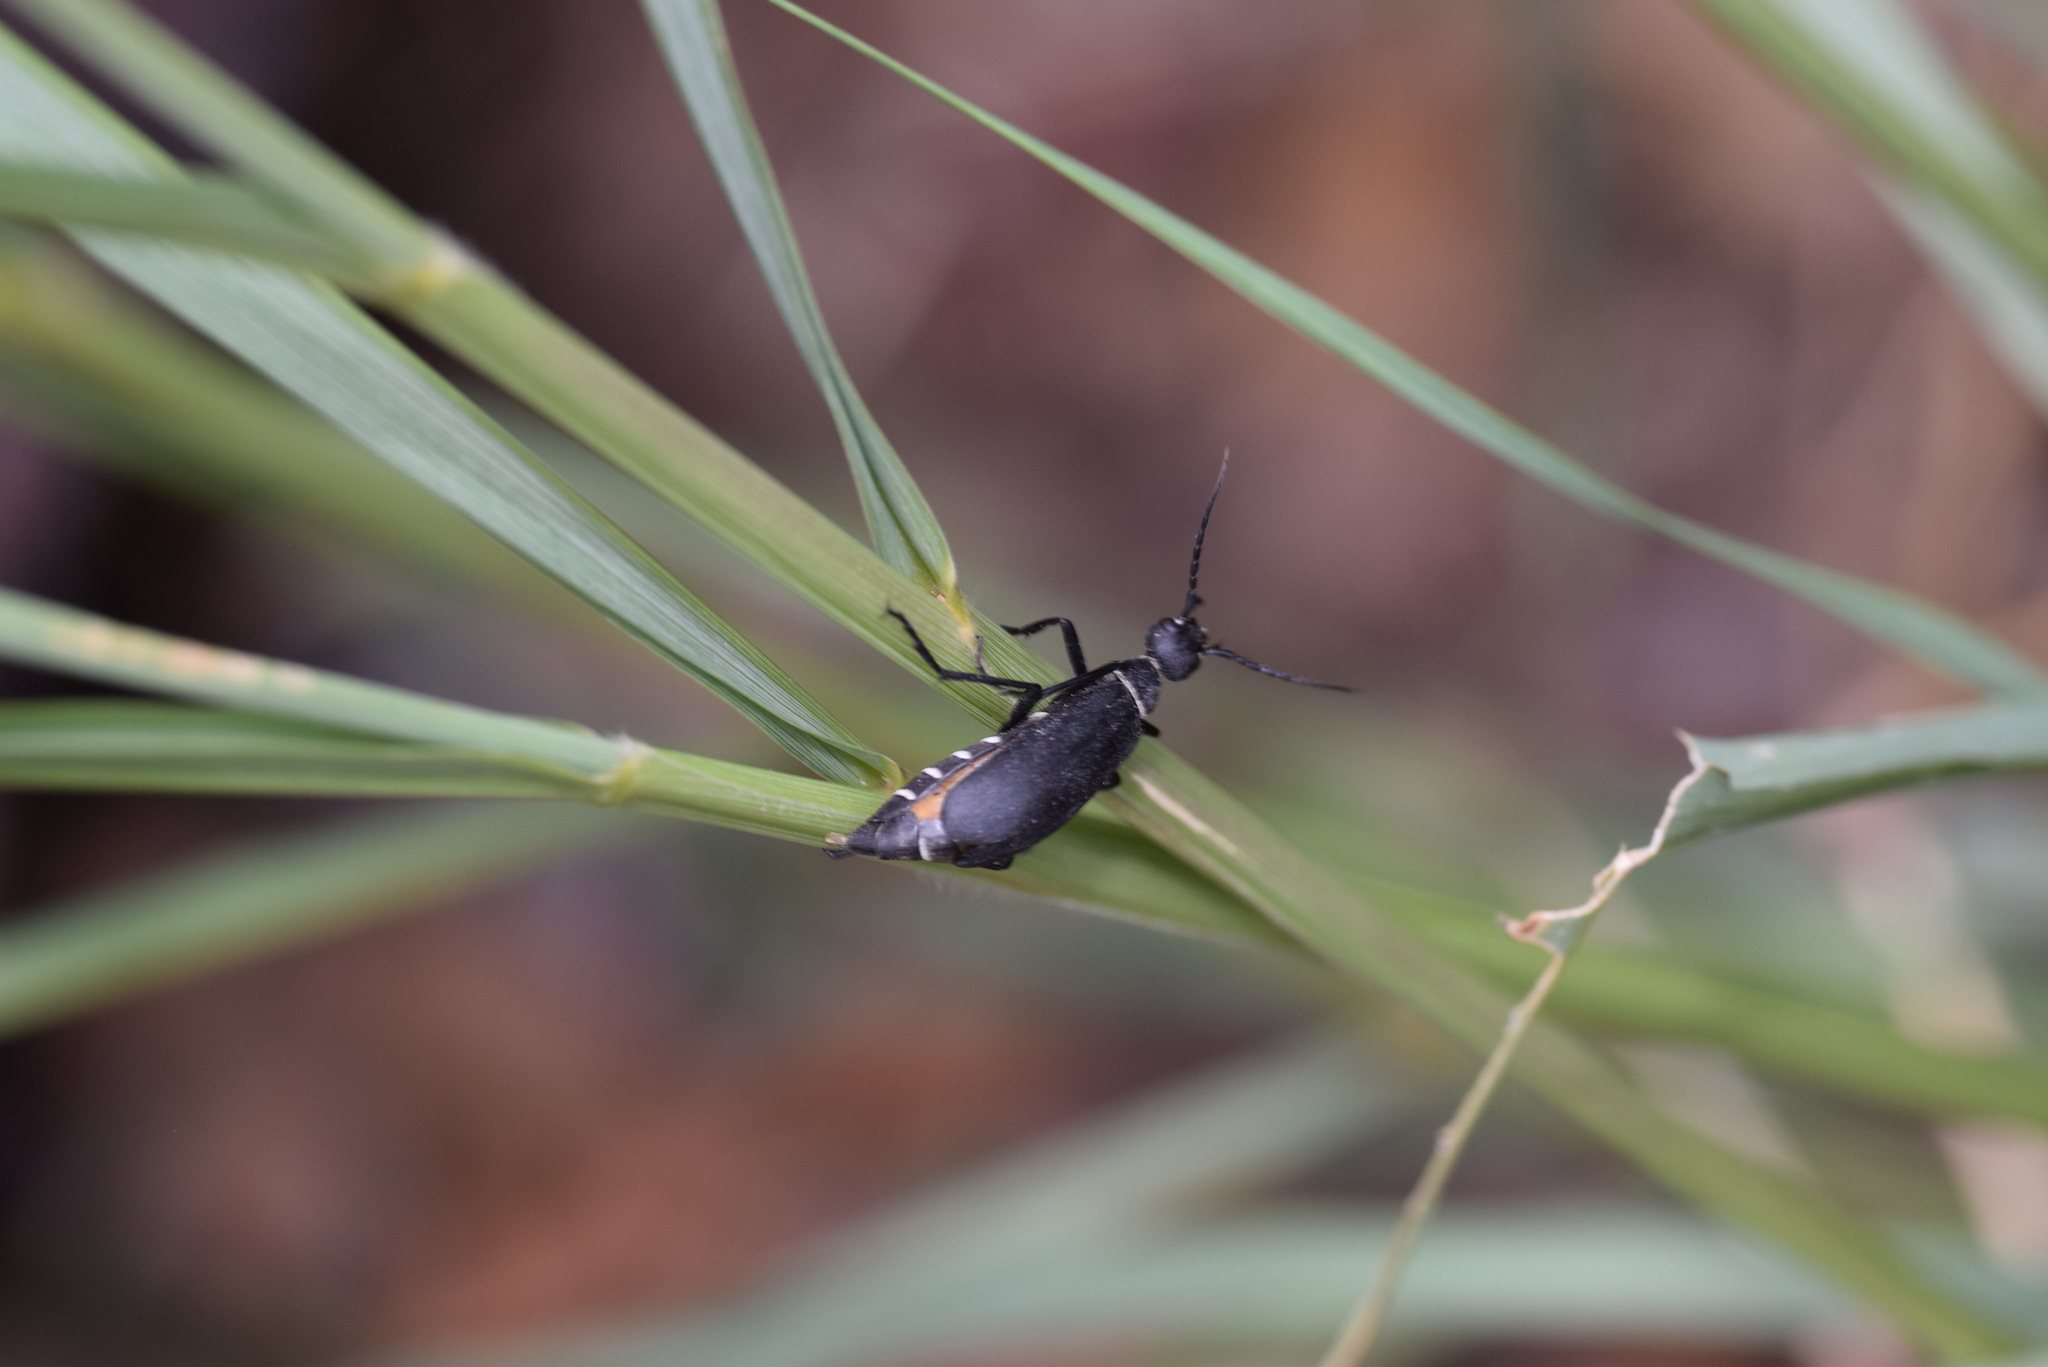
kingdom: Animalia
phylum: Arthropoda
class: Insecta
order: Coleoptera
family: Meloidae
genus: Epicauta
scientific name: Epicauta segmenta
